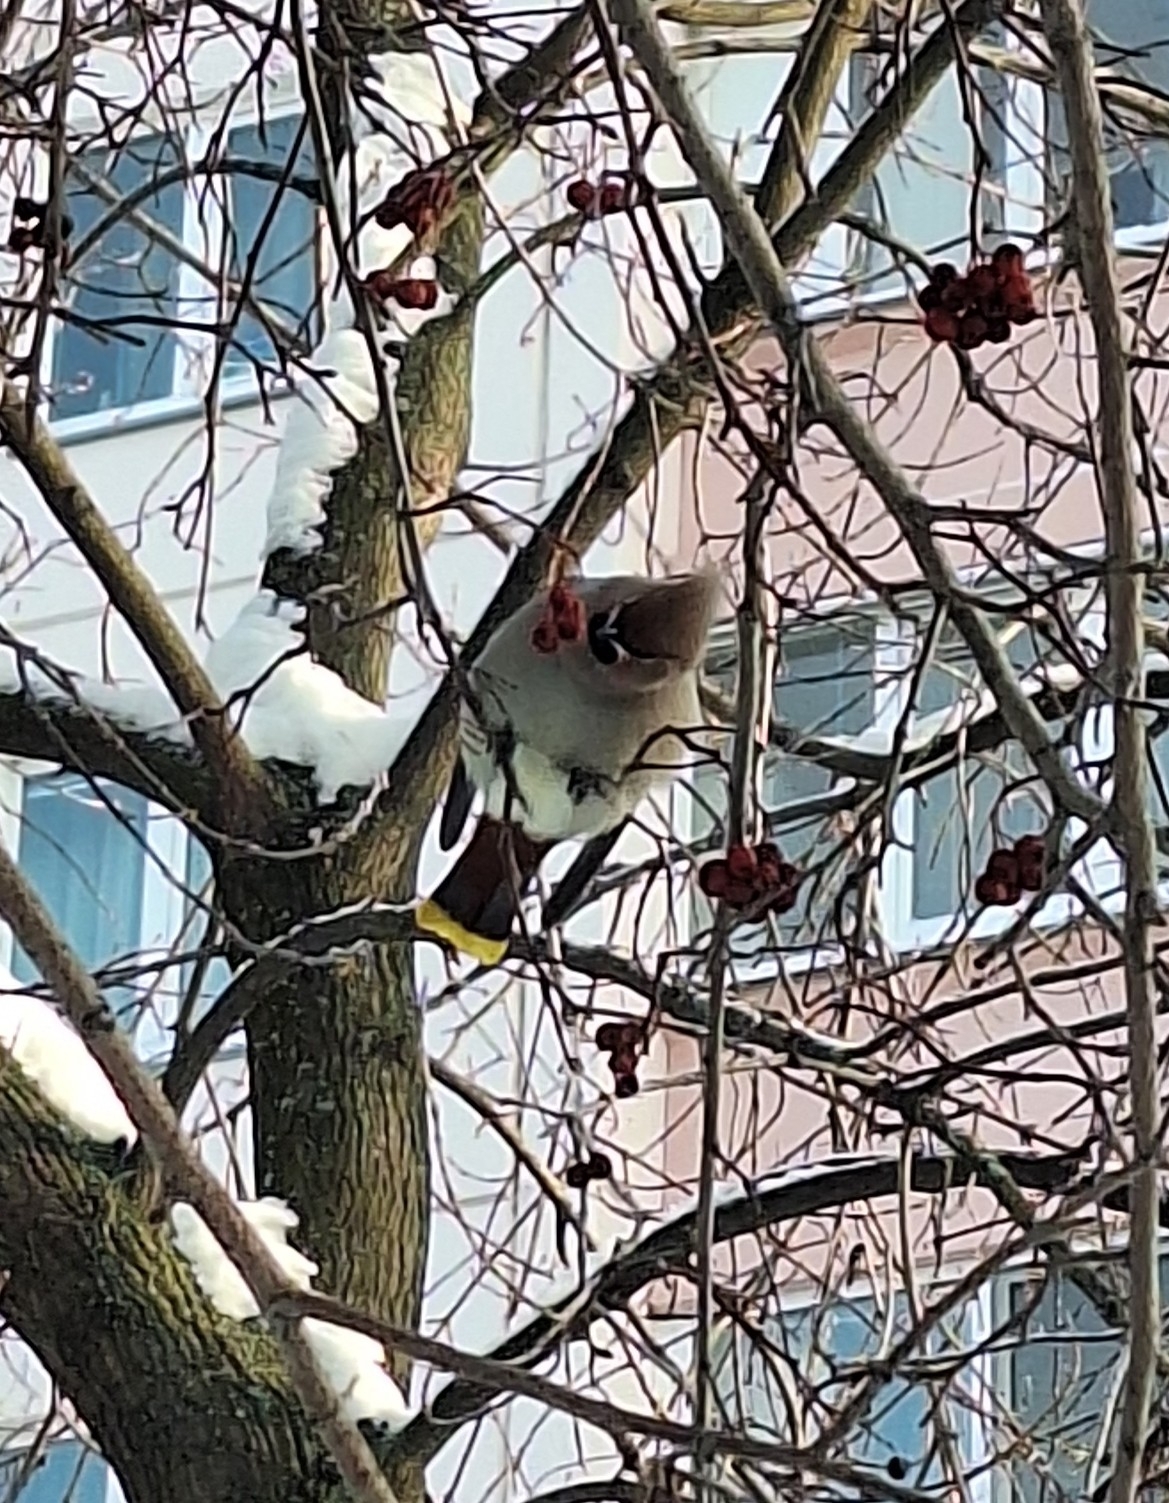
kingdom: Animalia
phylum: Chordata
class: Aves
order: Passeriformes
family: Bombycillidae
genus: Bombycilla
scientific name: Bombycilla garrulus
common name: Bohemian waxwing
